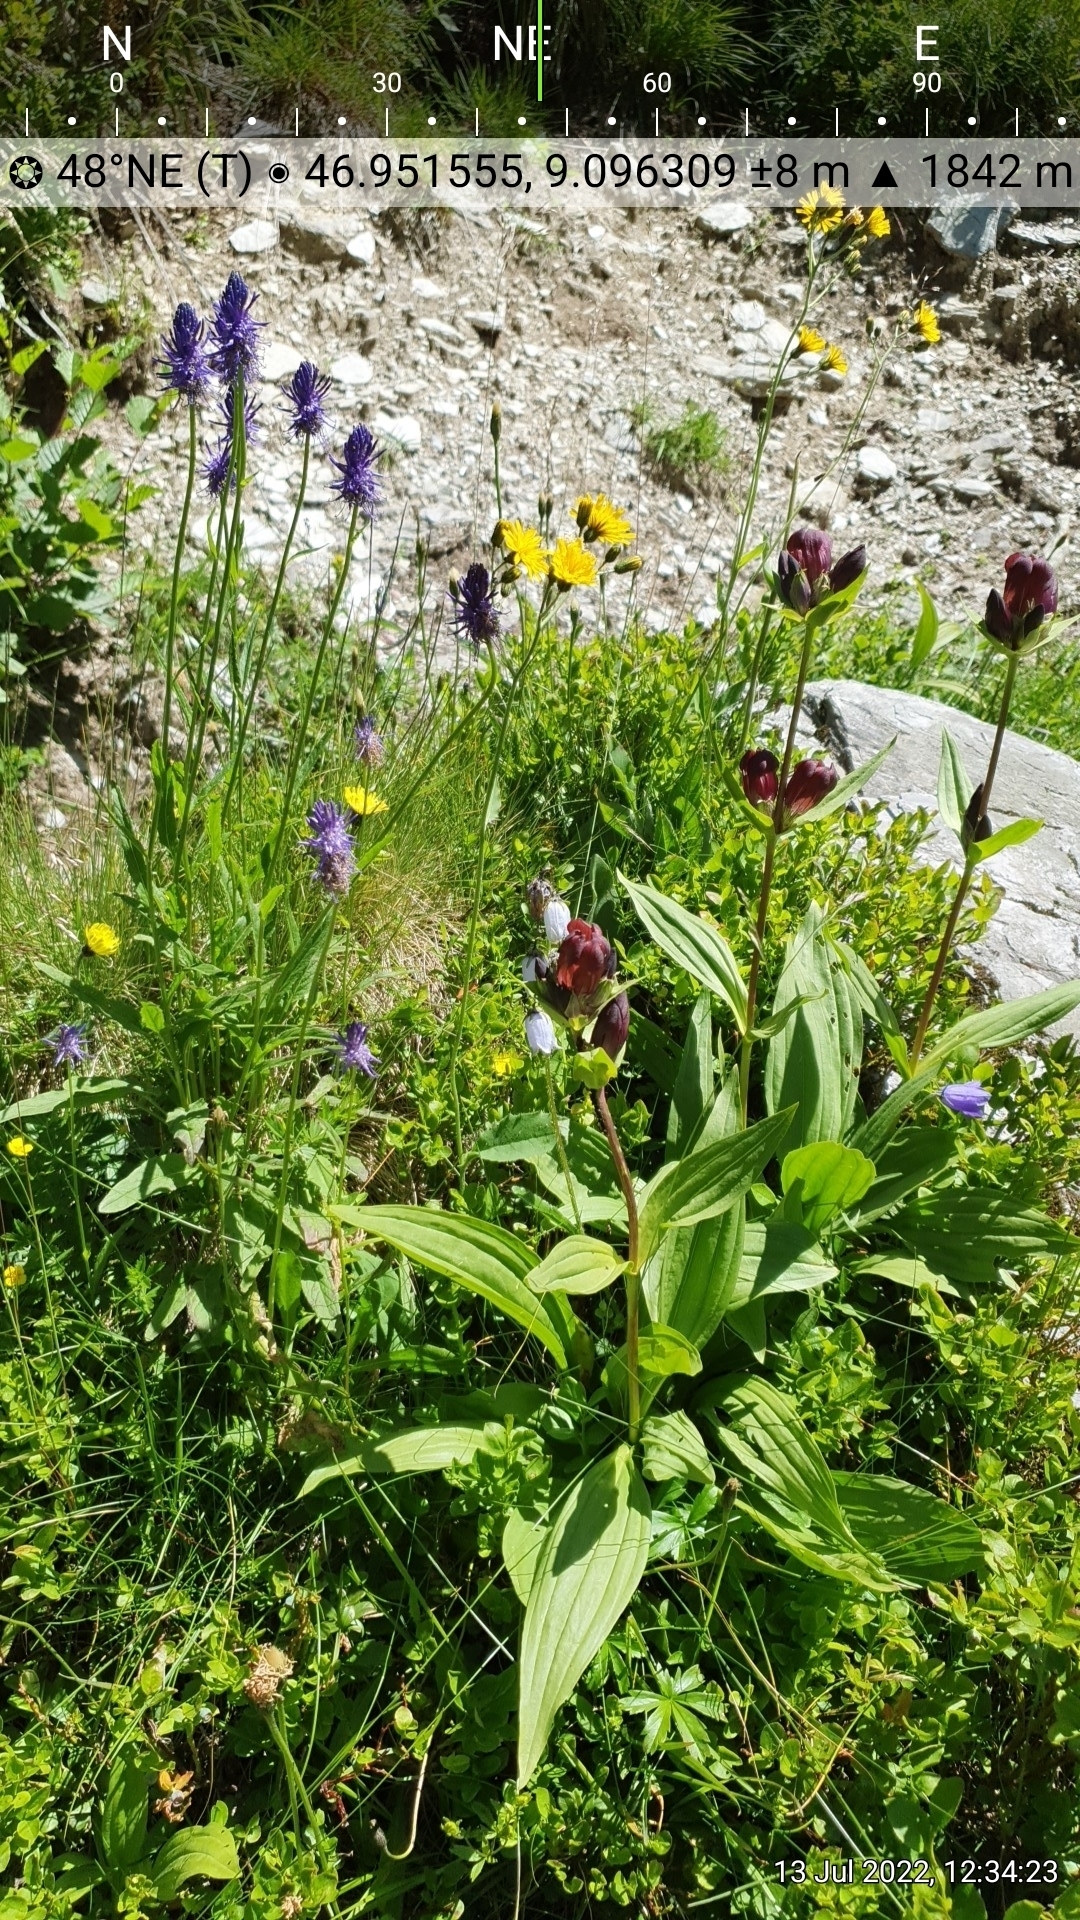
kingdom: Plantae
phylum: Tracheophyta
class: Magnoliopsida
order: Gentianales
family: Gentianaceae
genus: Gentiana
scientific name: Gentiana purpurea
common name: Purple gentian
